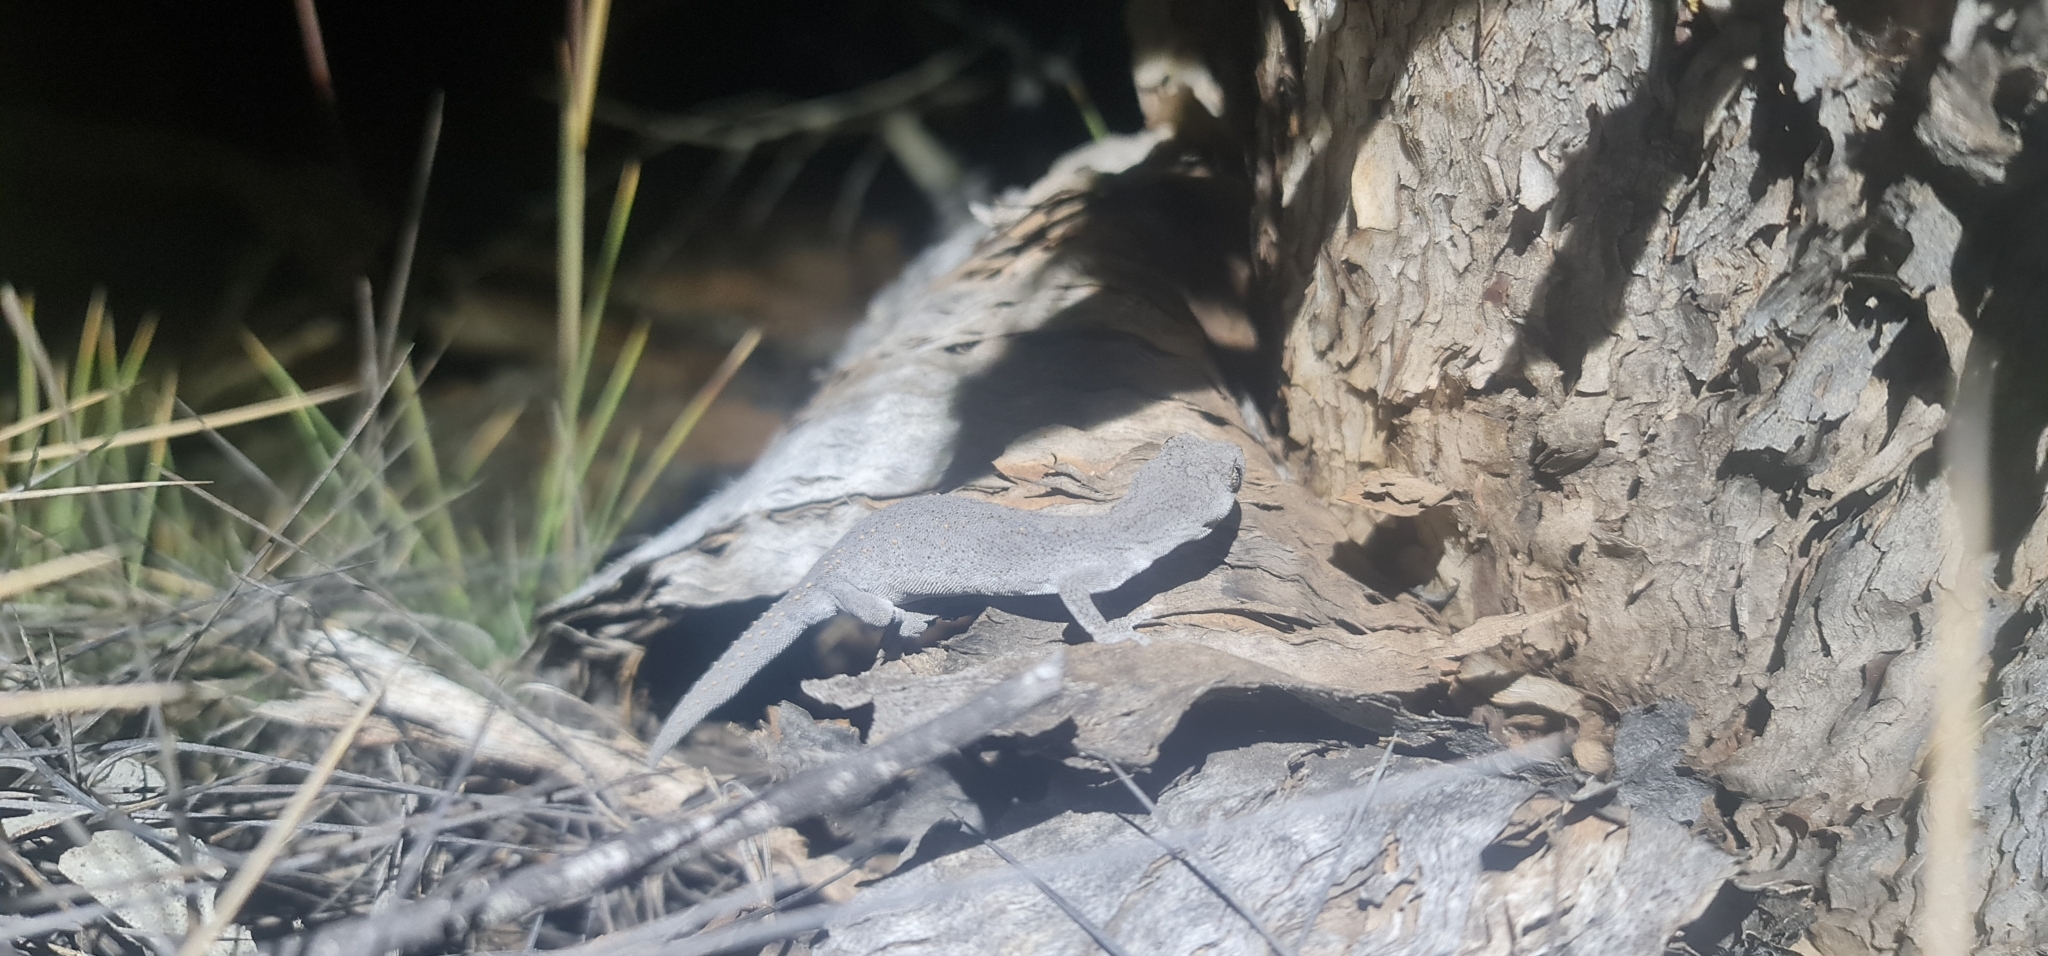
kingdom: Animalia
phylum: Chordata
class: Squamata
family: Diplodactylidae
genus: Strophurus
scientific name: Strophurus williamsi
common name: Eastern spiny-tailed gecko
